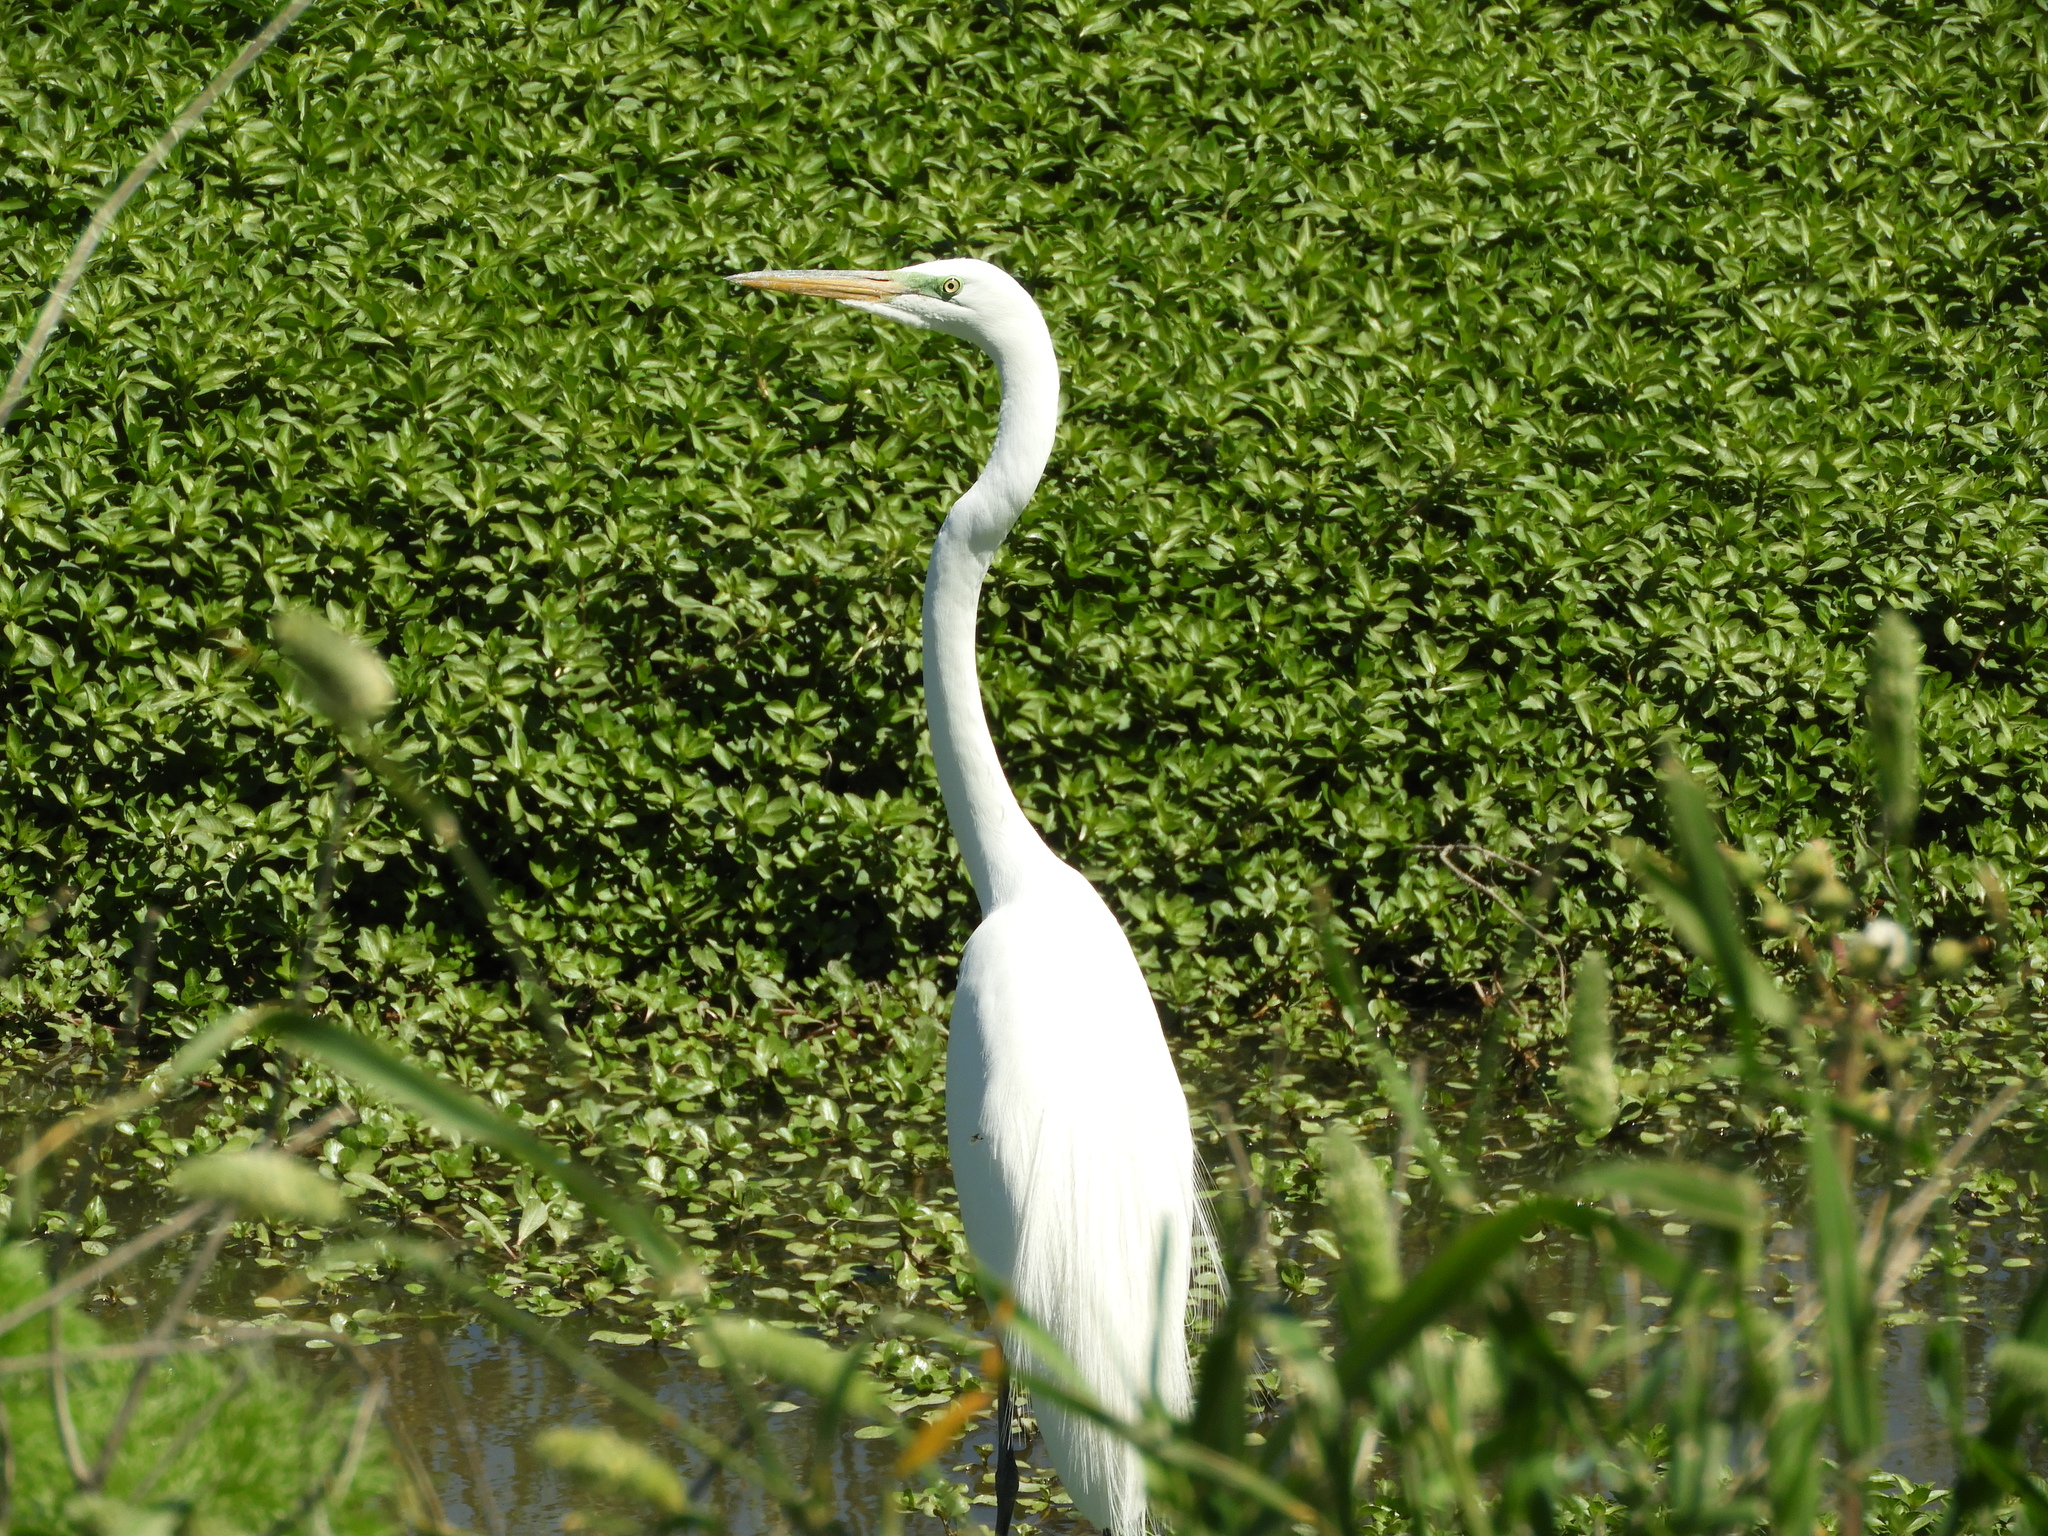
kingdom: Animalia
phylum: Chordata
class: Aves
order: Pelecaniformes
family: Ardeidae
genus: Ardea
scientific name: Ardea alba
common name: Great egret
